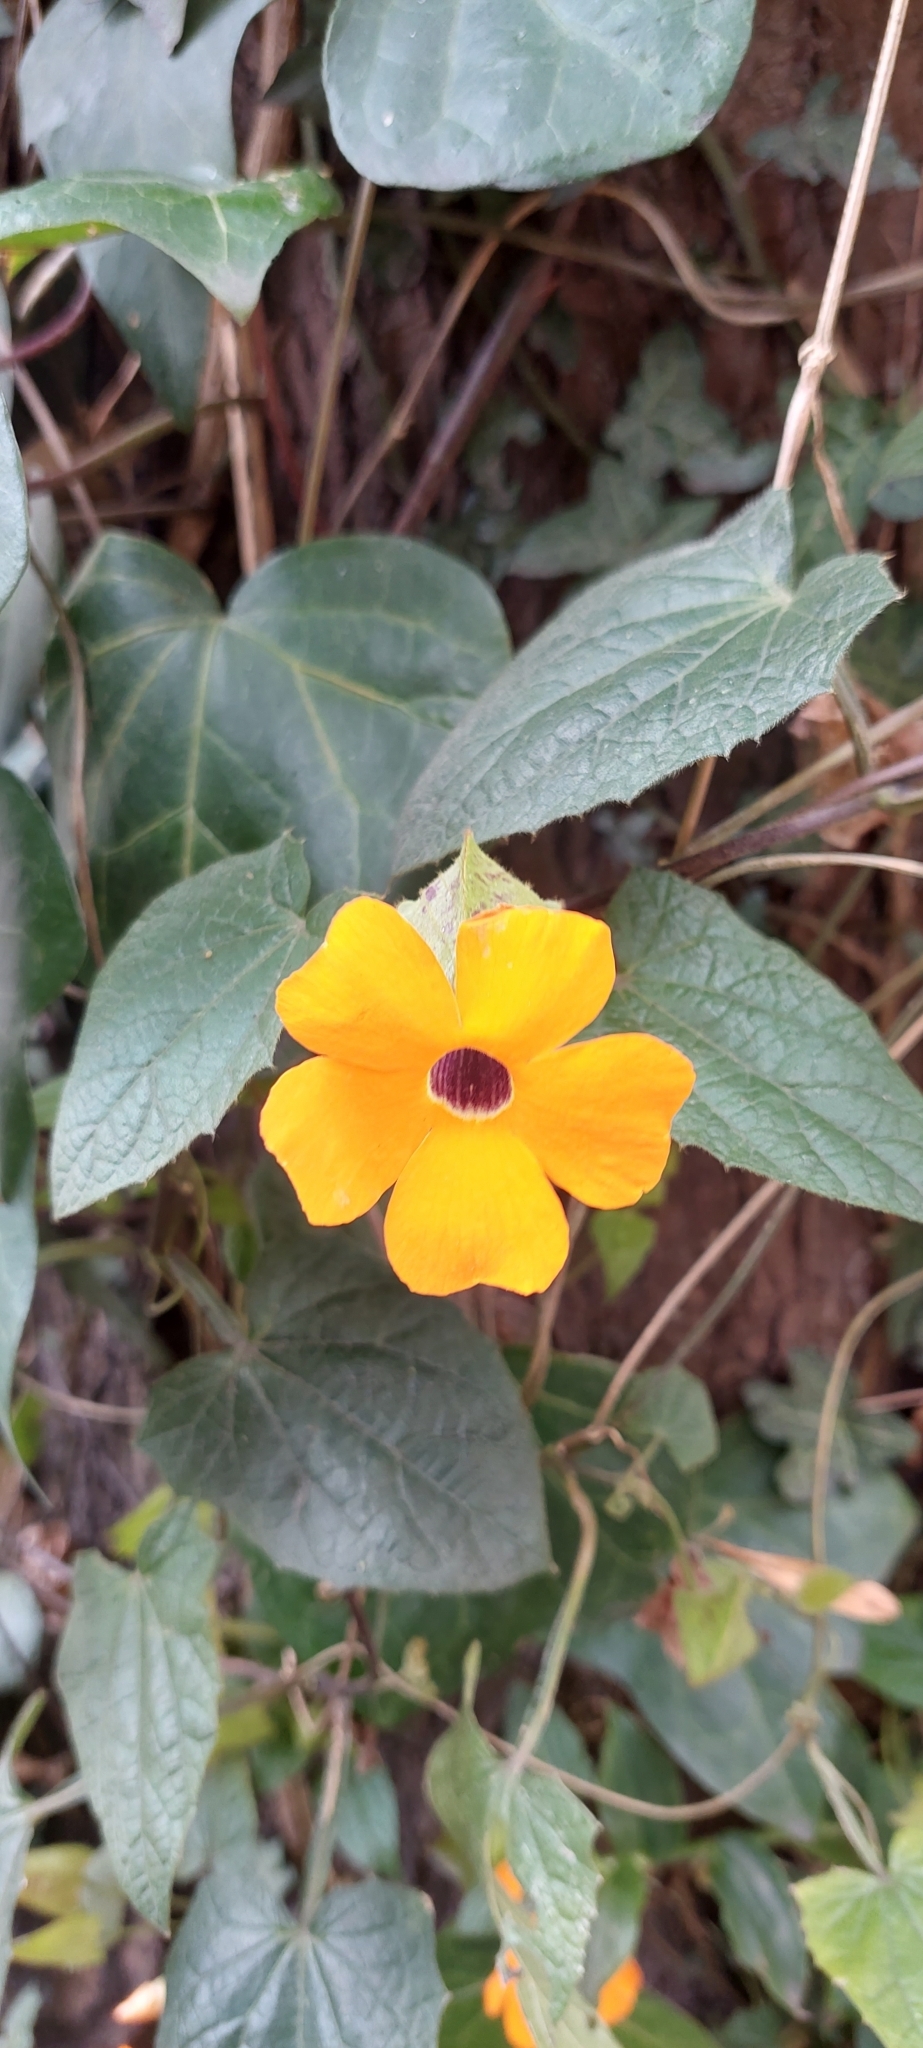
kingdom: Plantae
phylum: Tracheophyta
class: Magnoliopsida
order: Lamiales
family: Acanthaceae
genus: Thunbergia
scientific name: Thunbergia alata
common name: Blackeyed susan vine
